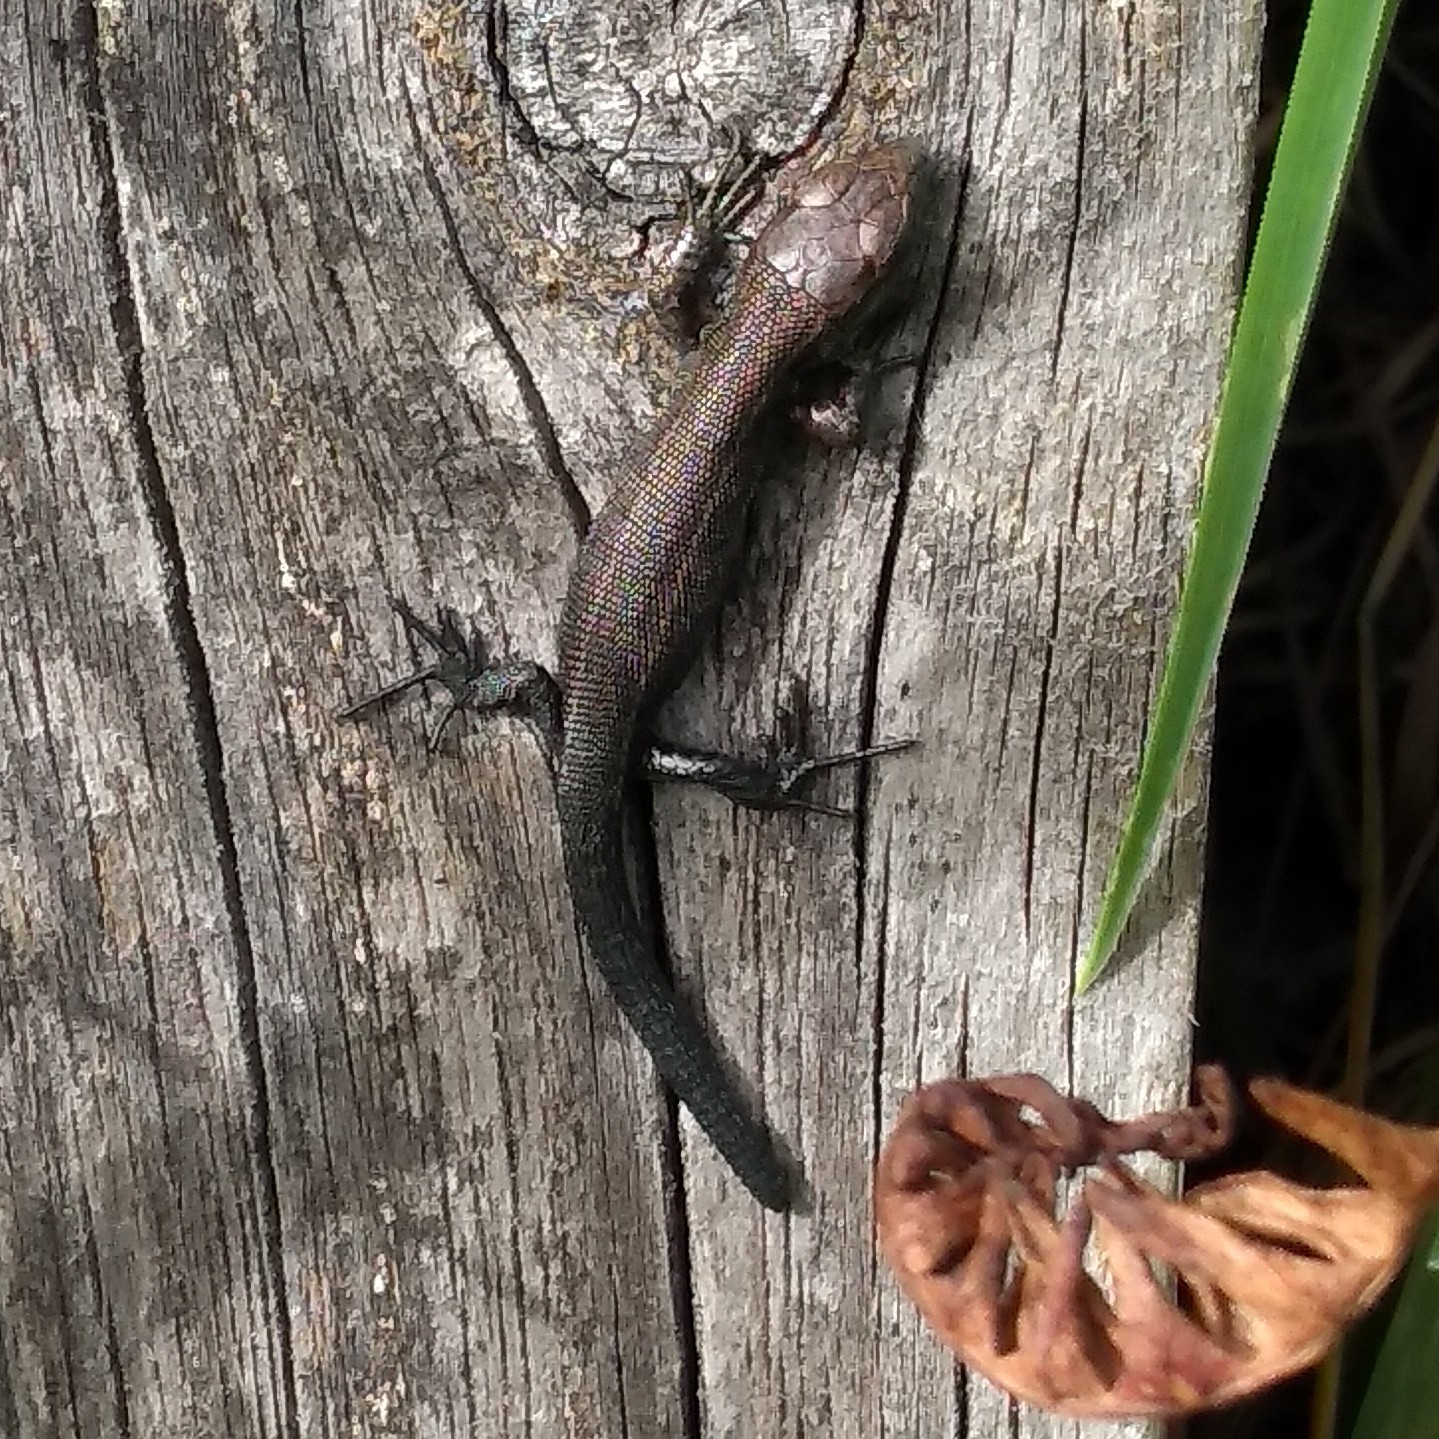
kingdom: Animalia
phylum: Chordata
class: Squamata
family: Lacertidae
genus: Zootoca
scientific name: Zootoca vivipara
